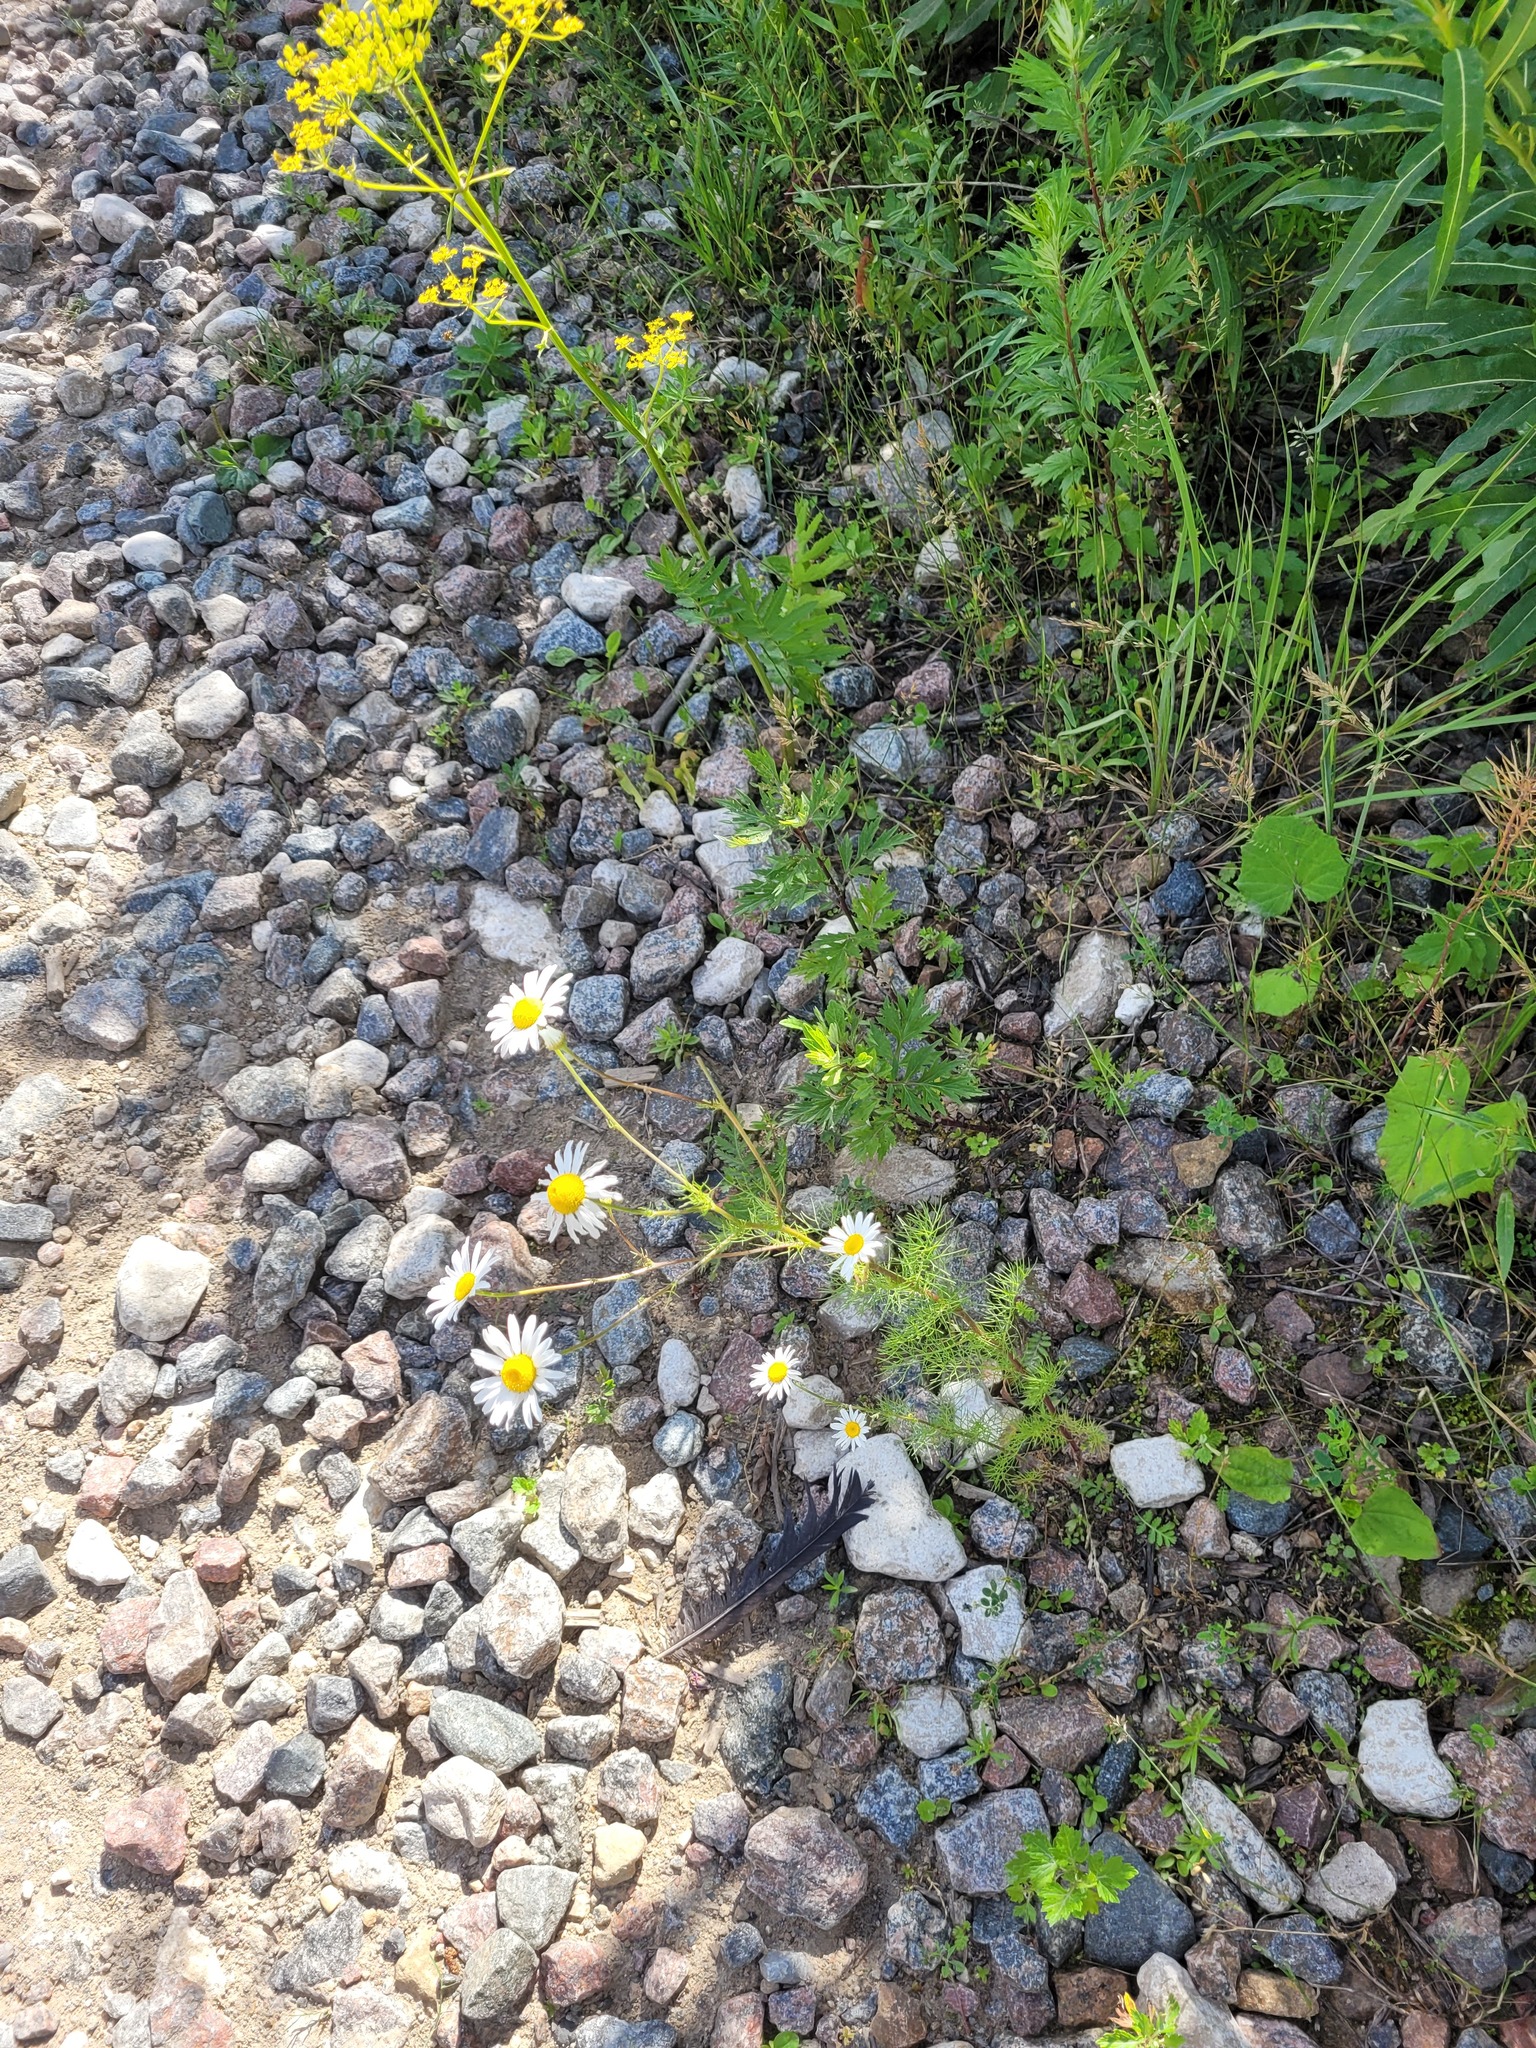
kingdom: Plantae
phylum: Tracheophyta
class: Magnoliopsida
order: Asterales
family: Asteraceae
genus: Tripleurospermum
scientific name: Tripleurospermum inodorum
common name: Scentless mayweed
